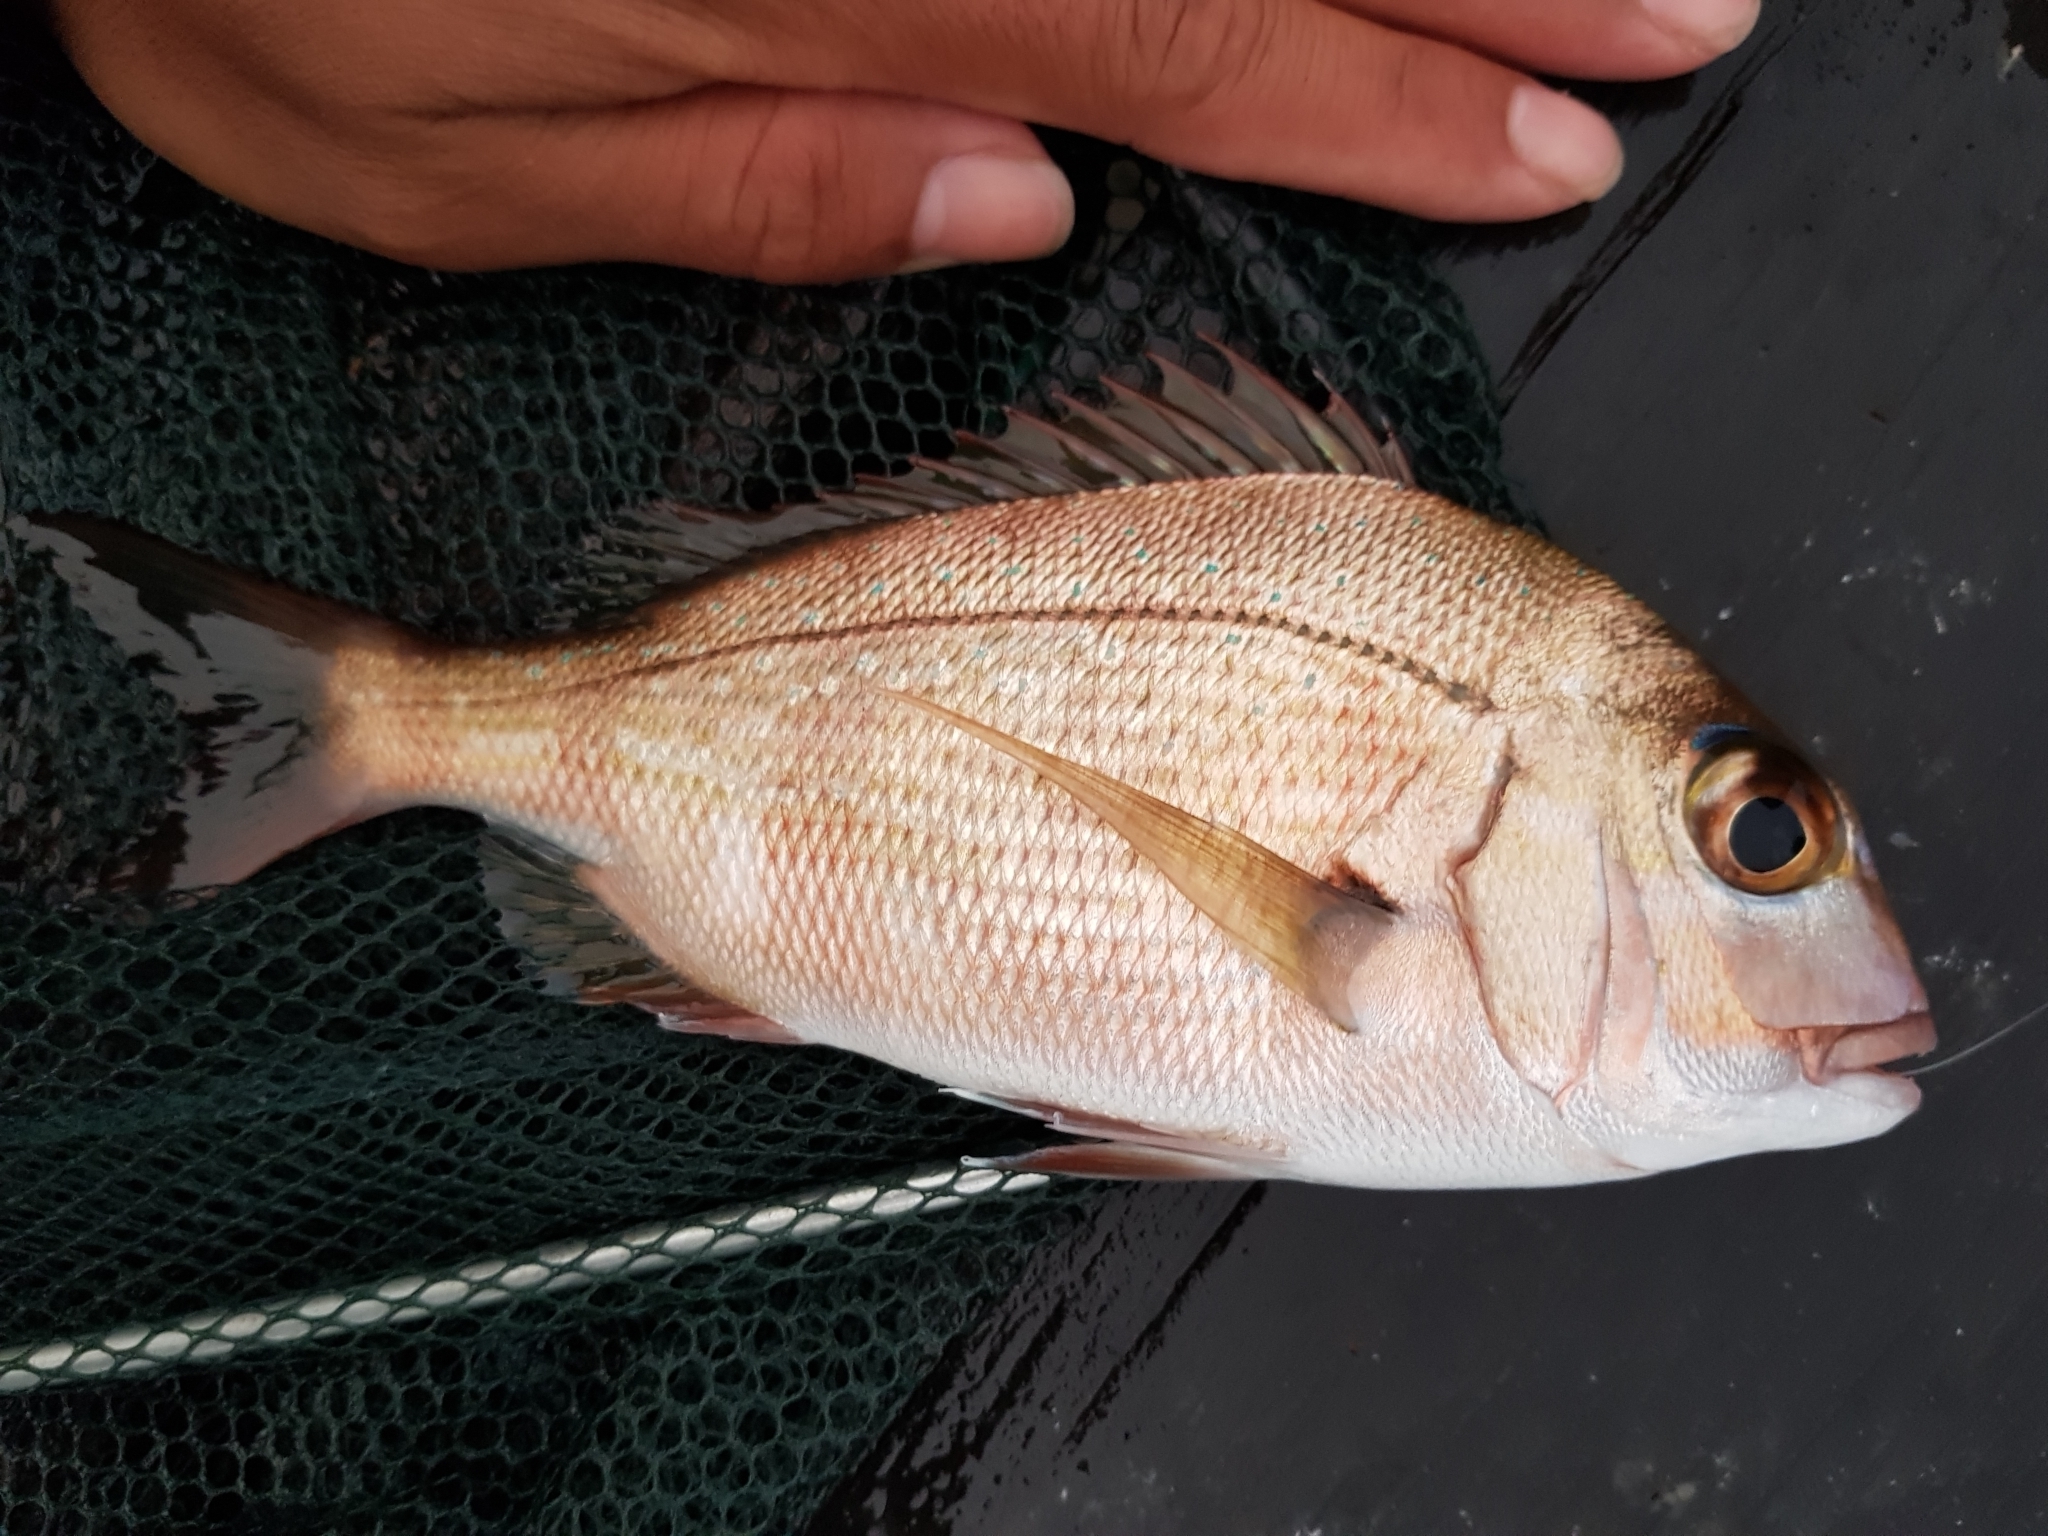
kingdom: Animalia
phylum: Chordata
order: Perciformes
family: Sparidae
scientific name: Sparidae
